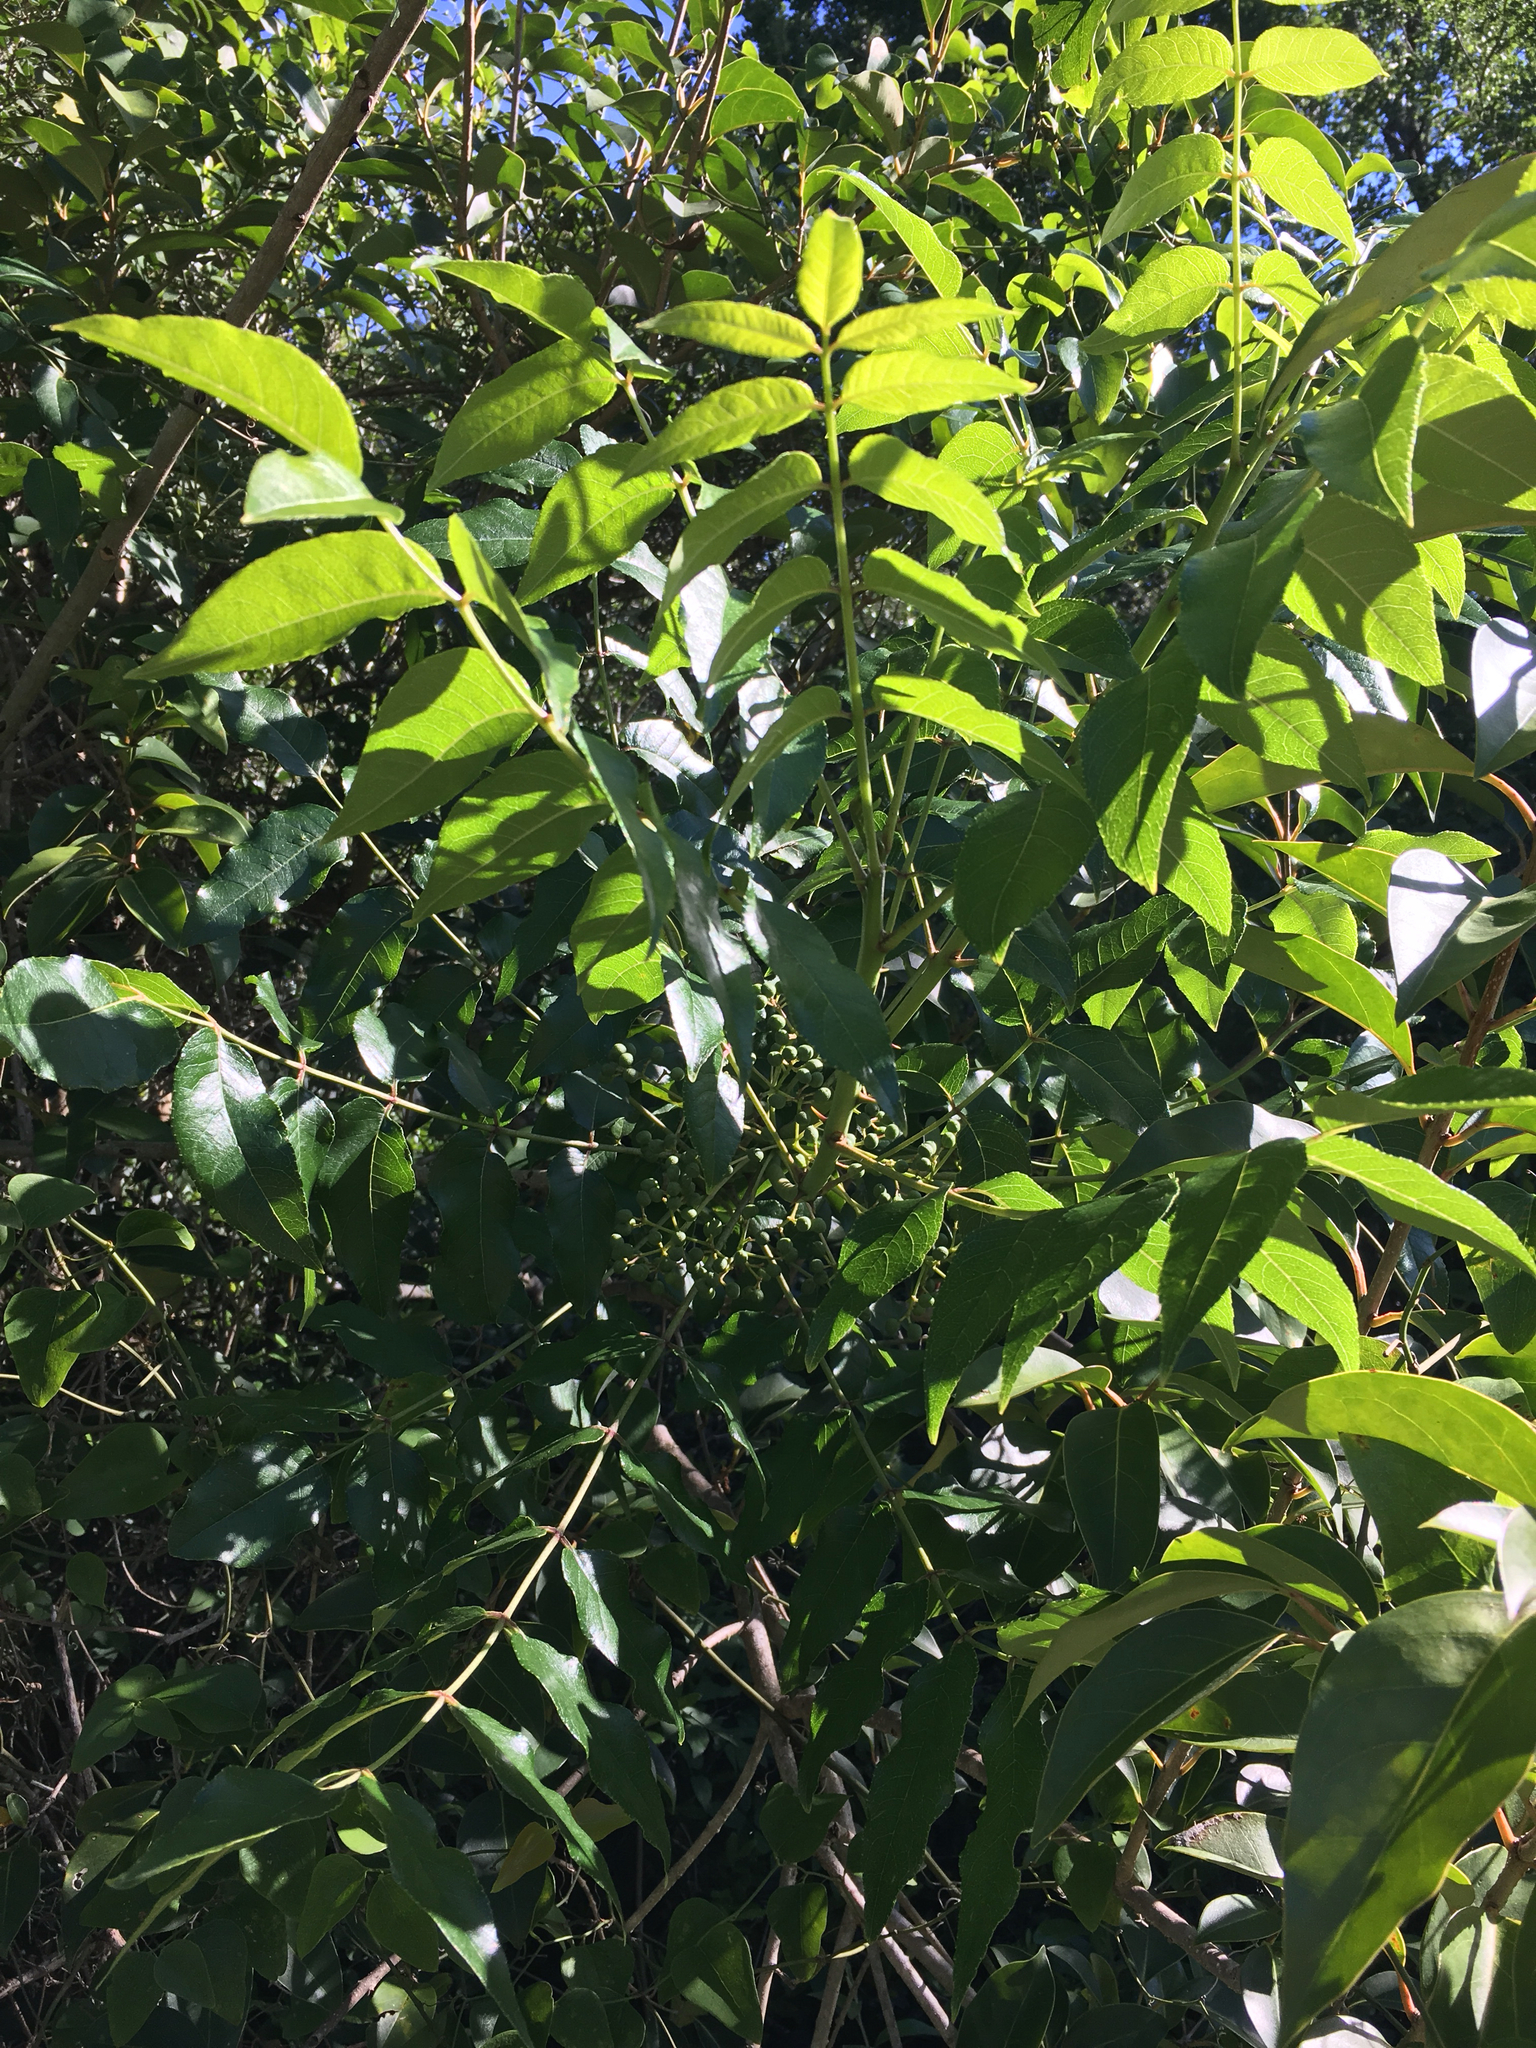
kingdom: Plantae
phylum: Tracheophyta
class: Magnoliopsida
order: Sapindales
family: Rutaceae
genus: Zanthoxylum
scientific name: Zanthoxylum clava-herculis
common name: Hercules'-club
